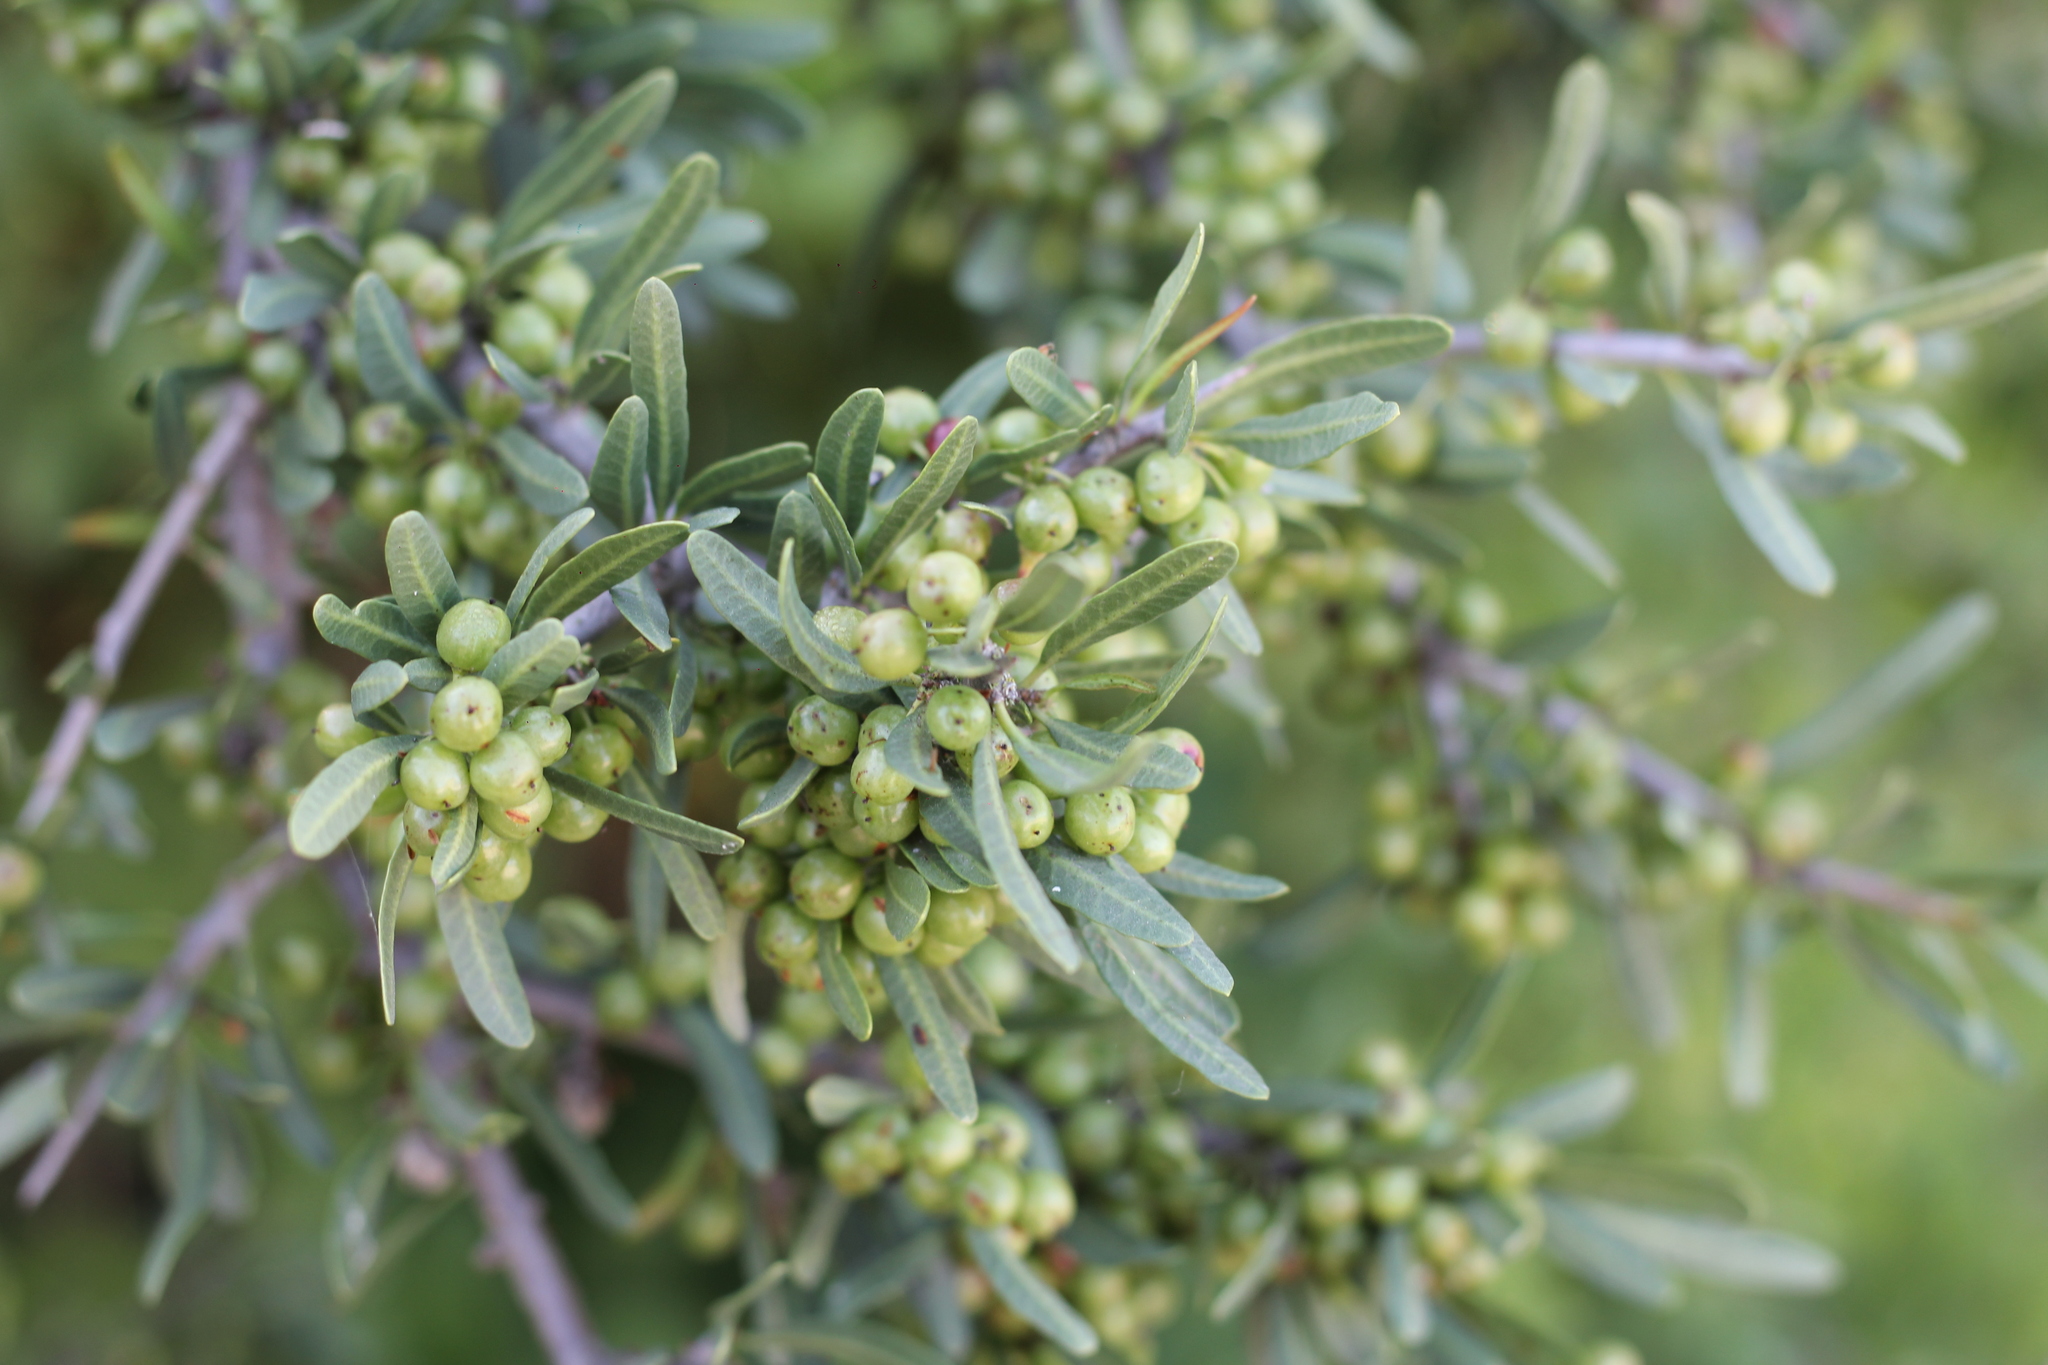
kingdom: Plantae
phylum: Tracheophyta
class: Magnoliopsida
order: Sapindales
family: Anacardiaceae
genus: Schinus
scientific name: Schinus longifolia
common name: Longleaf peppertree
